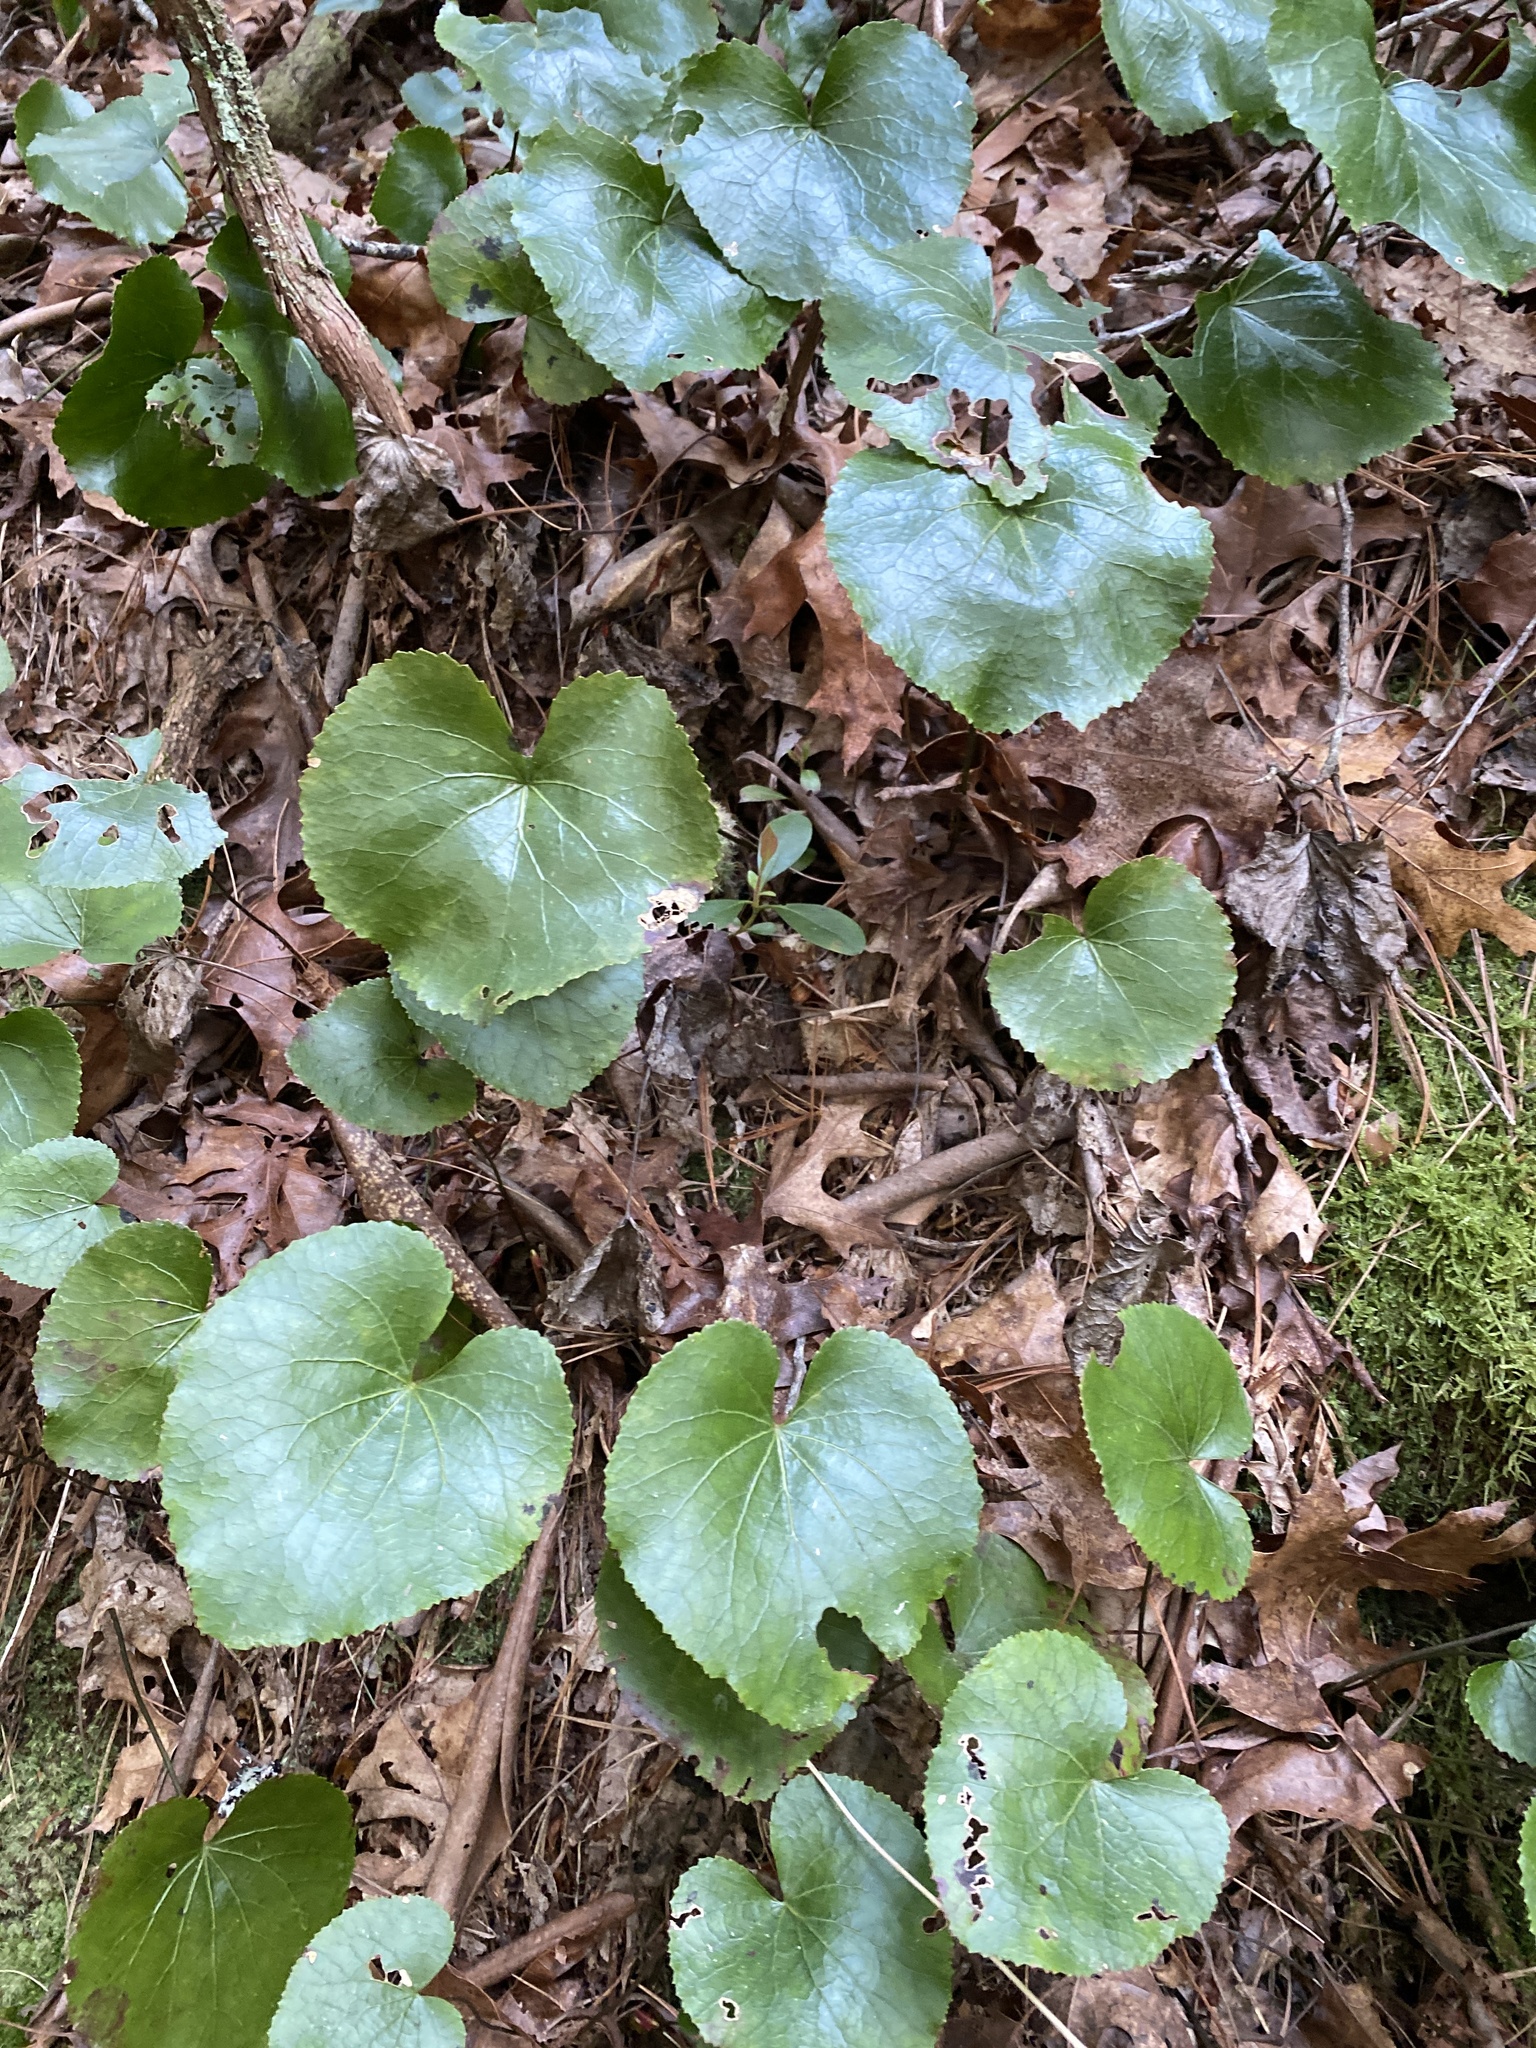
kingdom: Plantae
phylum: Tracheophyta
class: Magnoliopsida
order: Ericales
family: Diapensiaceae
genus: Galax
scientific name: Galax urceolata
